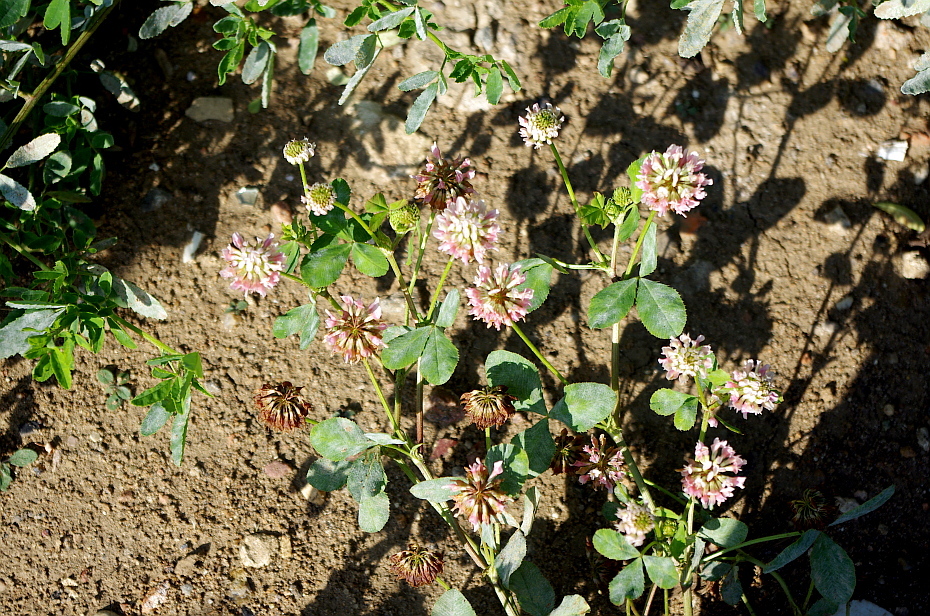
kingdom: Plantae
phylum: Tracheophyta
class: Magnoliopsida
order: Fabales
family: Fabaceae
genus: Trifolium
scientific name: Trifolium hybridum
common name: Alsike clover
